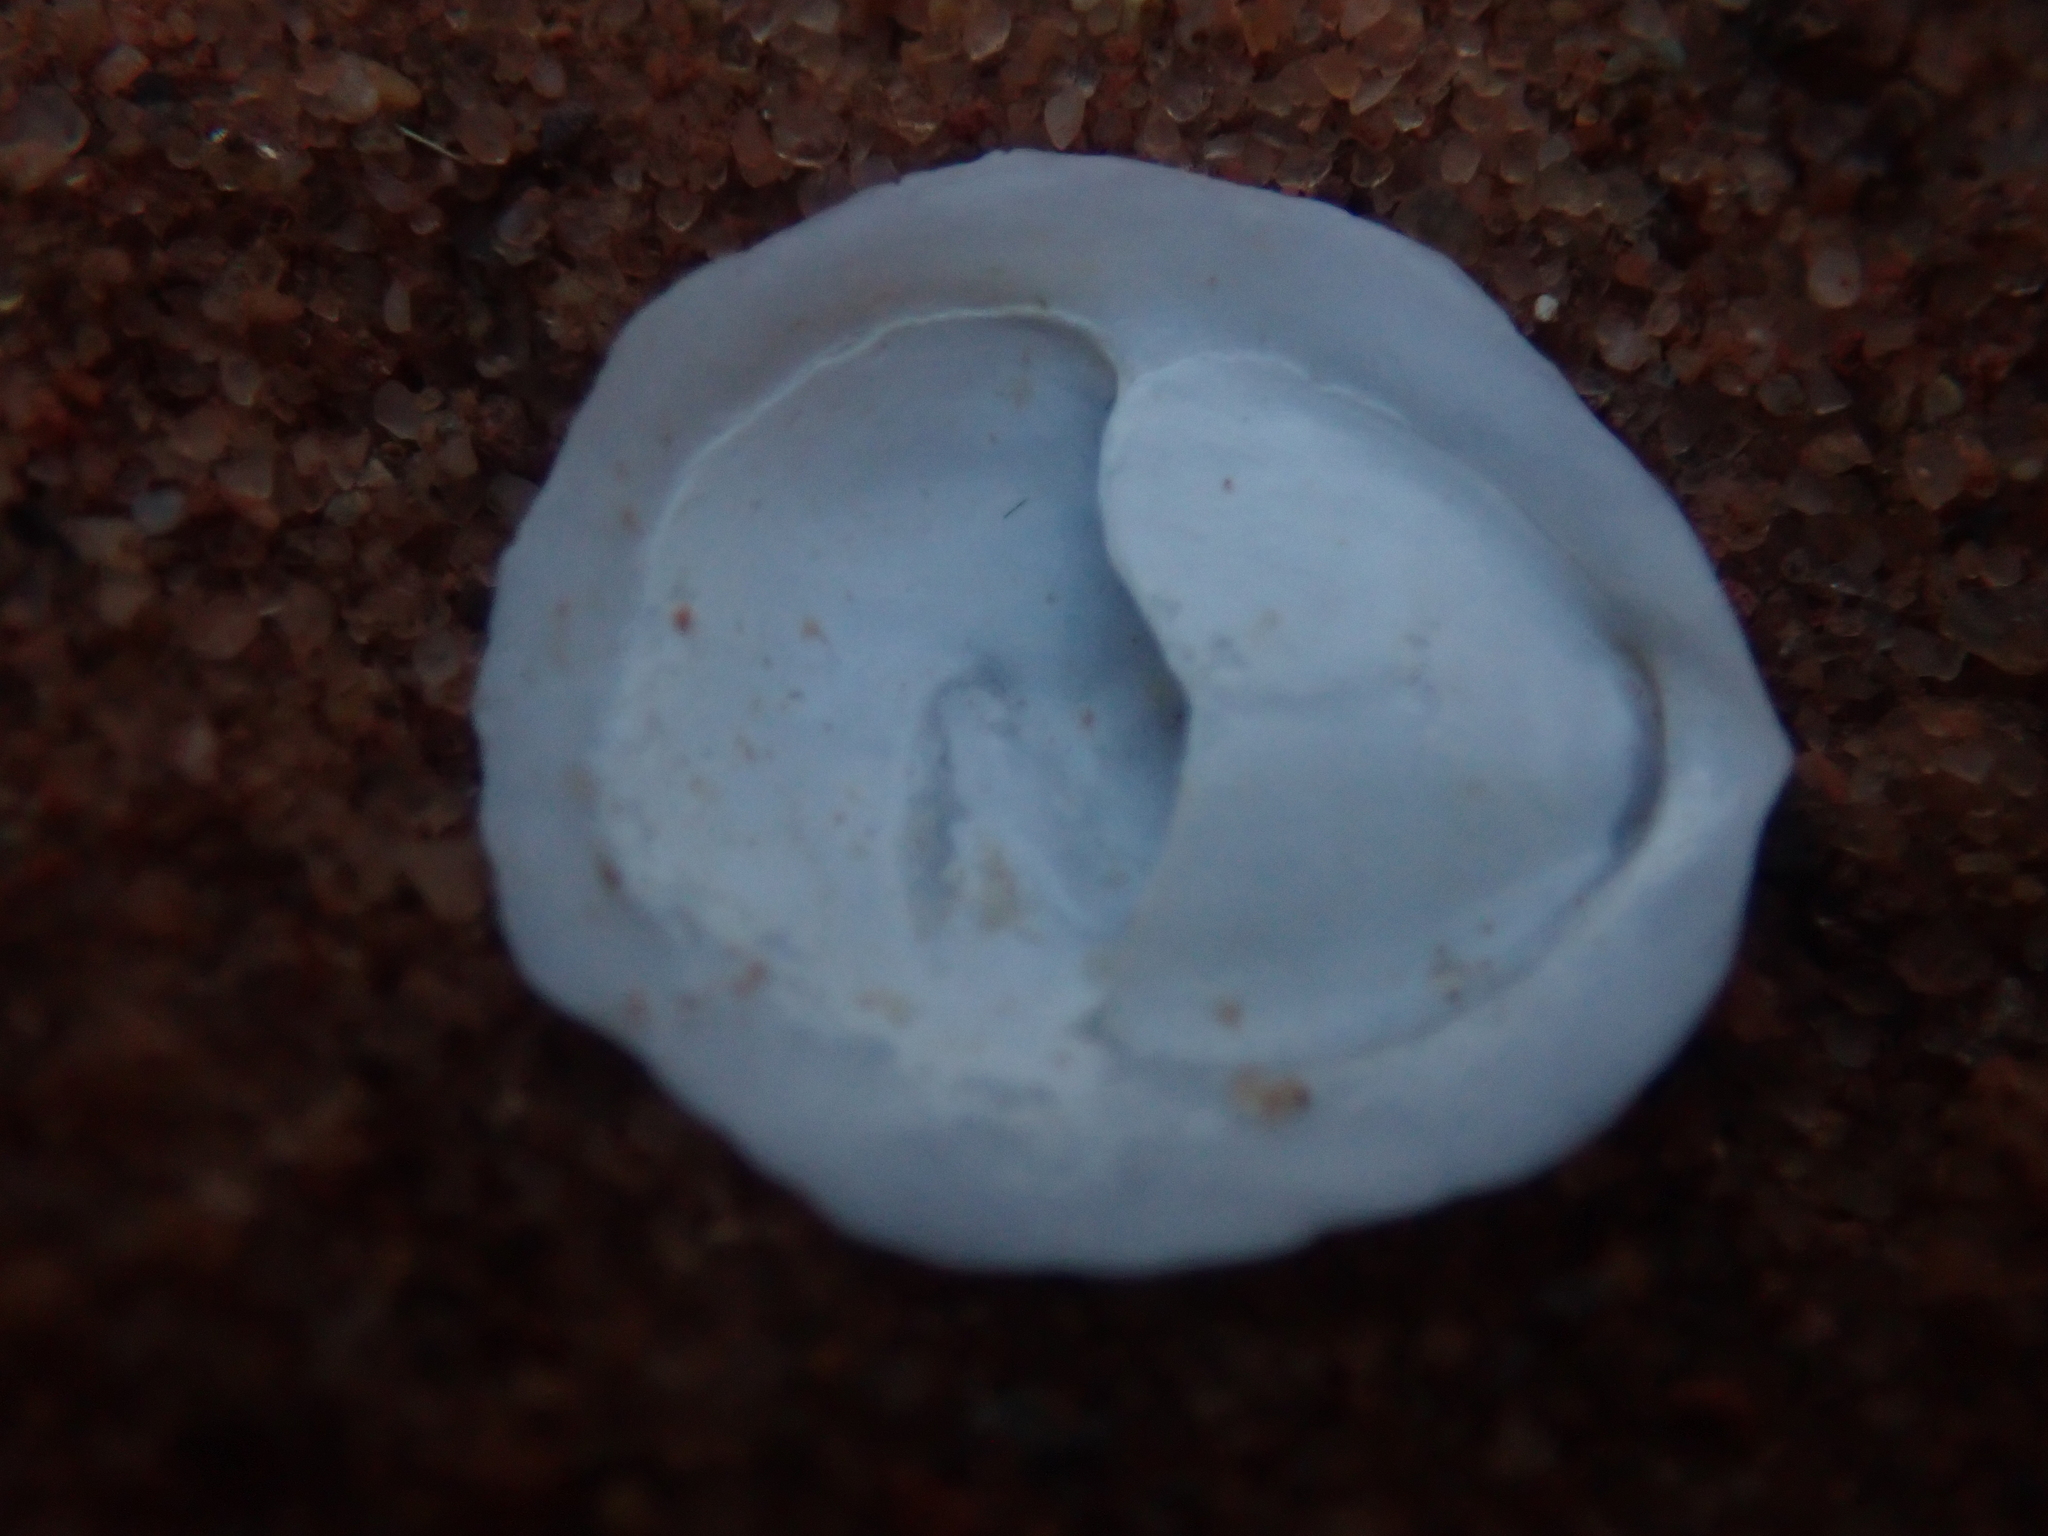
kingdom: Animalia
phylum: Mollusca
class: Gastropoda
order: Littorinimorpha
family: Calyptraeidae
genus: Crepidula
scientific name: Crepidula plana
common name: Eastern white slippersnail
